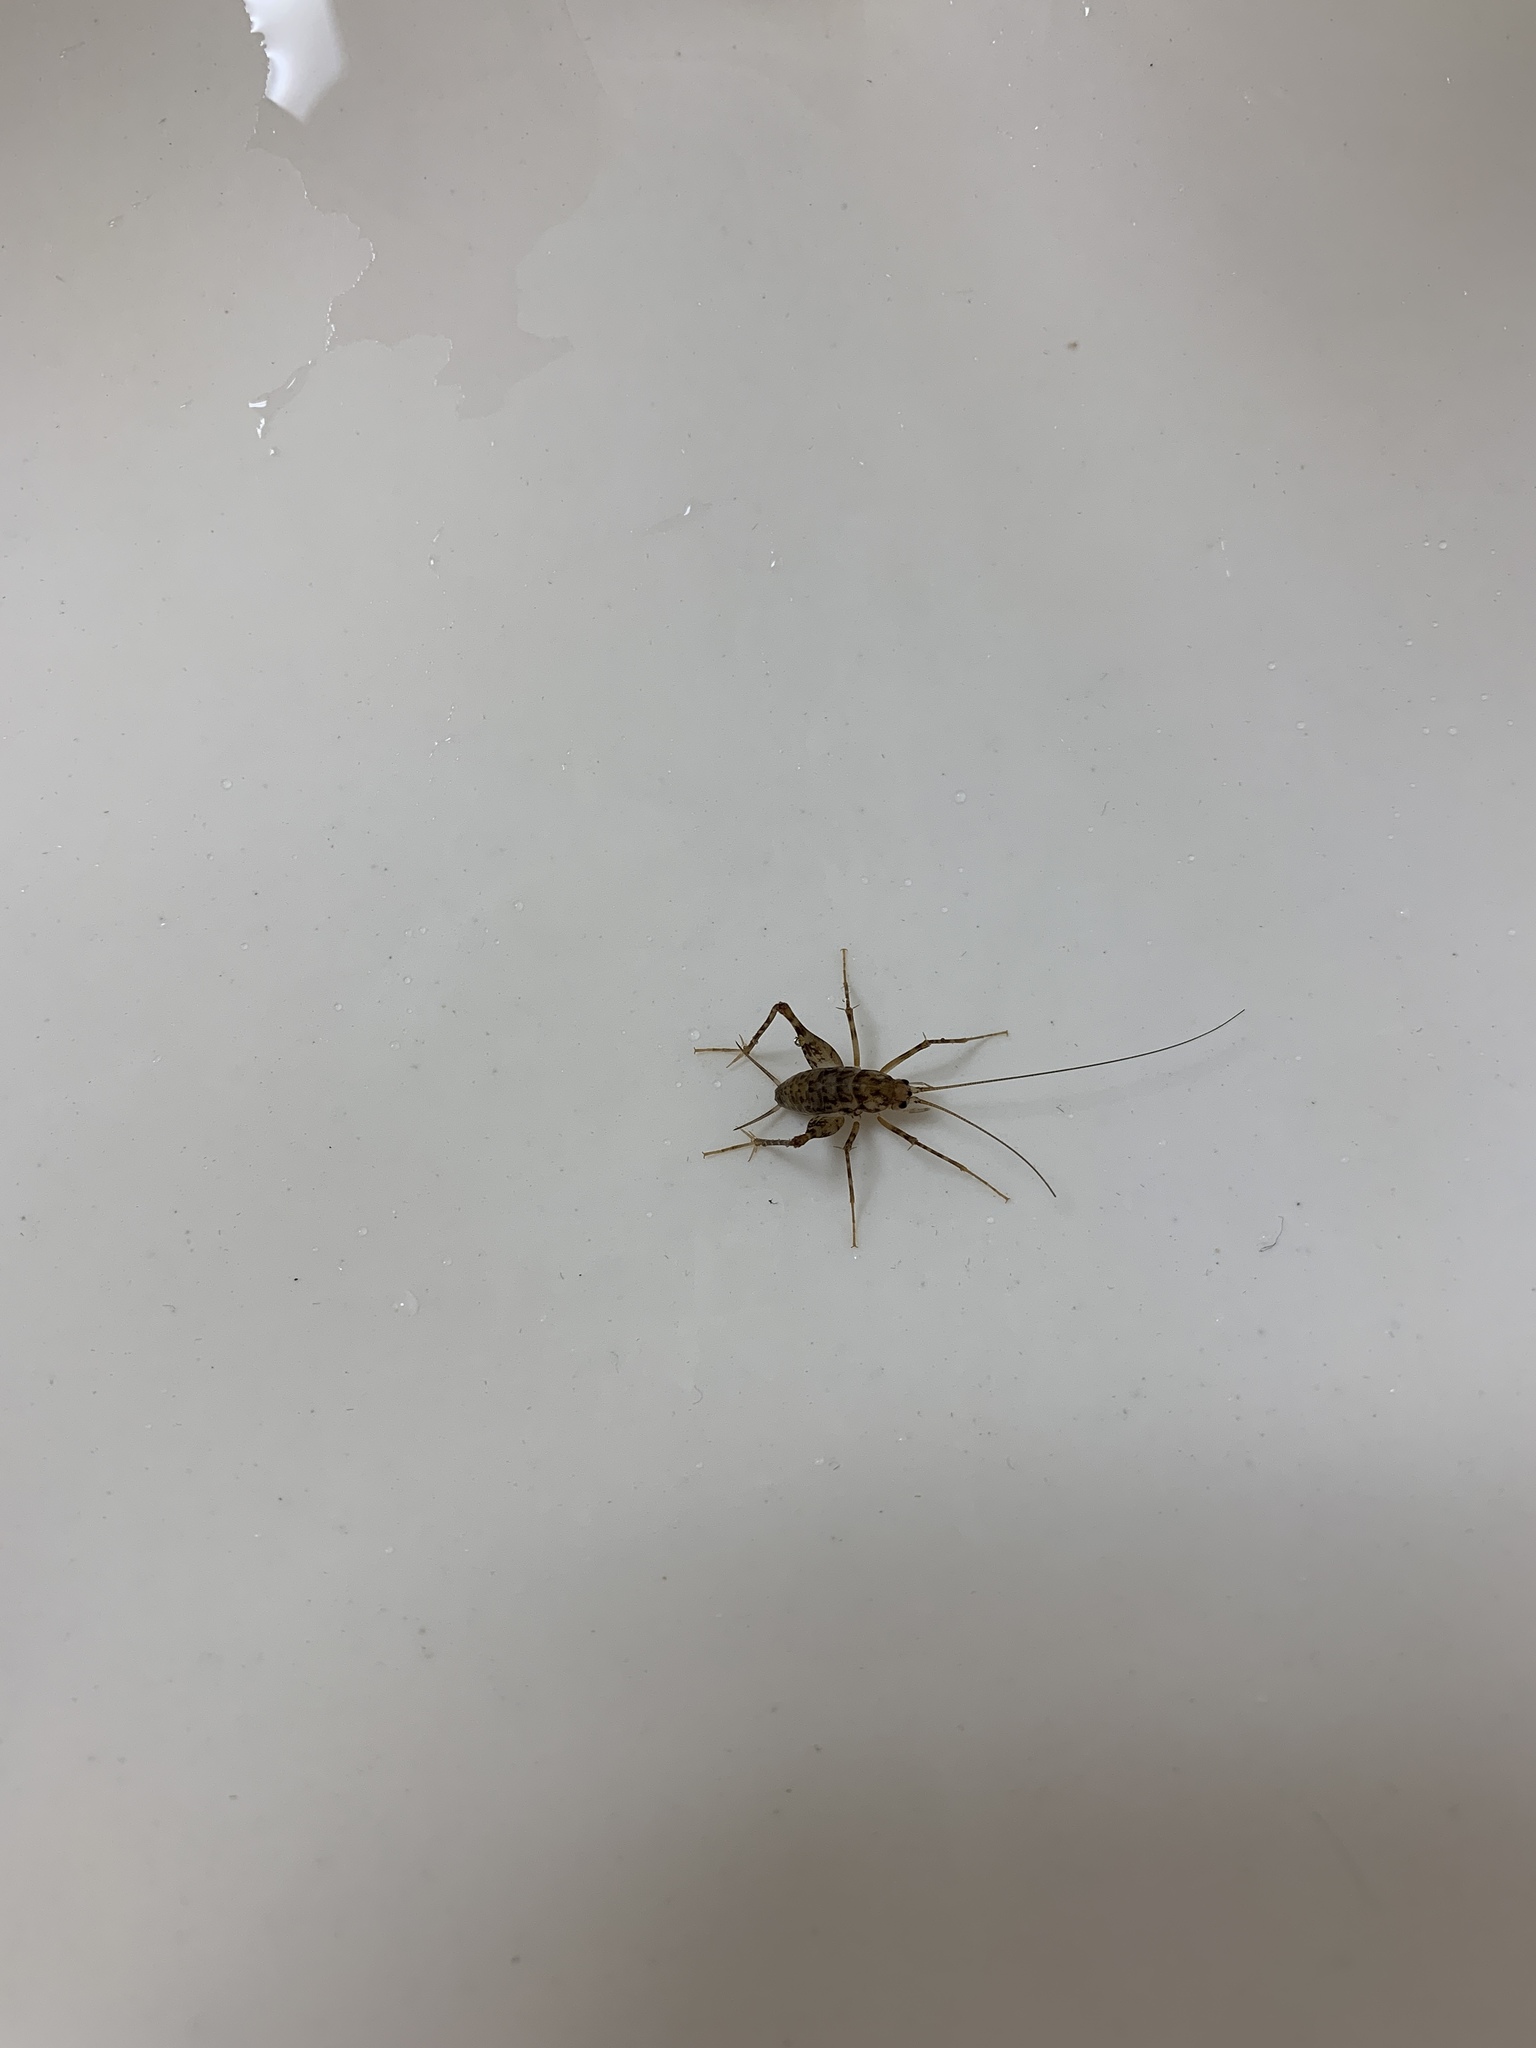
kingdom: Animalia
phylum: Arthropoda
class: Insecta
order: Orthoptera
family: Rhaphidophoridae
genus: Tachycines
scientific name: Tachycines asynamorus
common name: Greenhouse camel cricket
